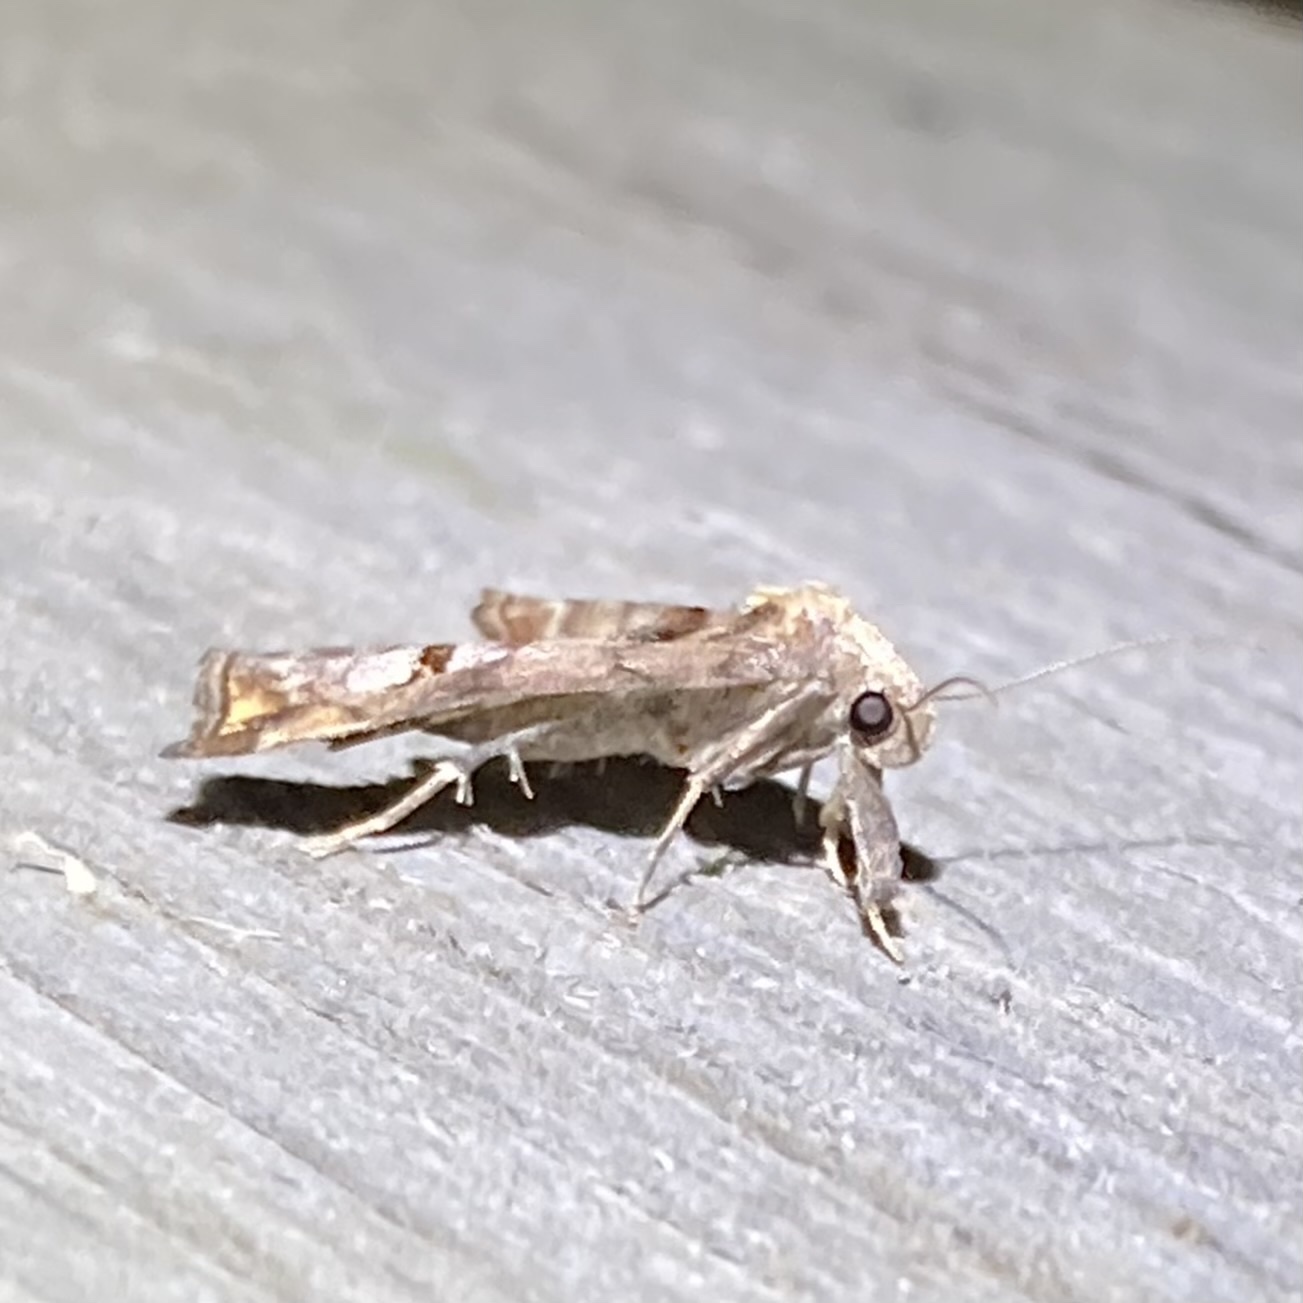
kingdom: Animalia
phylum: Arthropoda
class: Insecta
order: Lepidoptera
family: Erebidae
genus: Palthis
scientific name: Palthis angulalis
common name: Dark-spotted palthis moth
